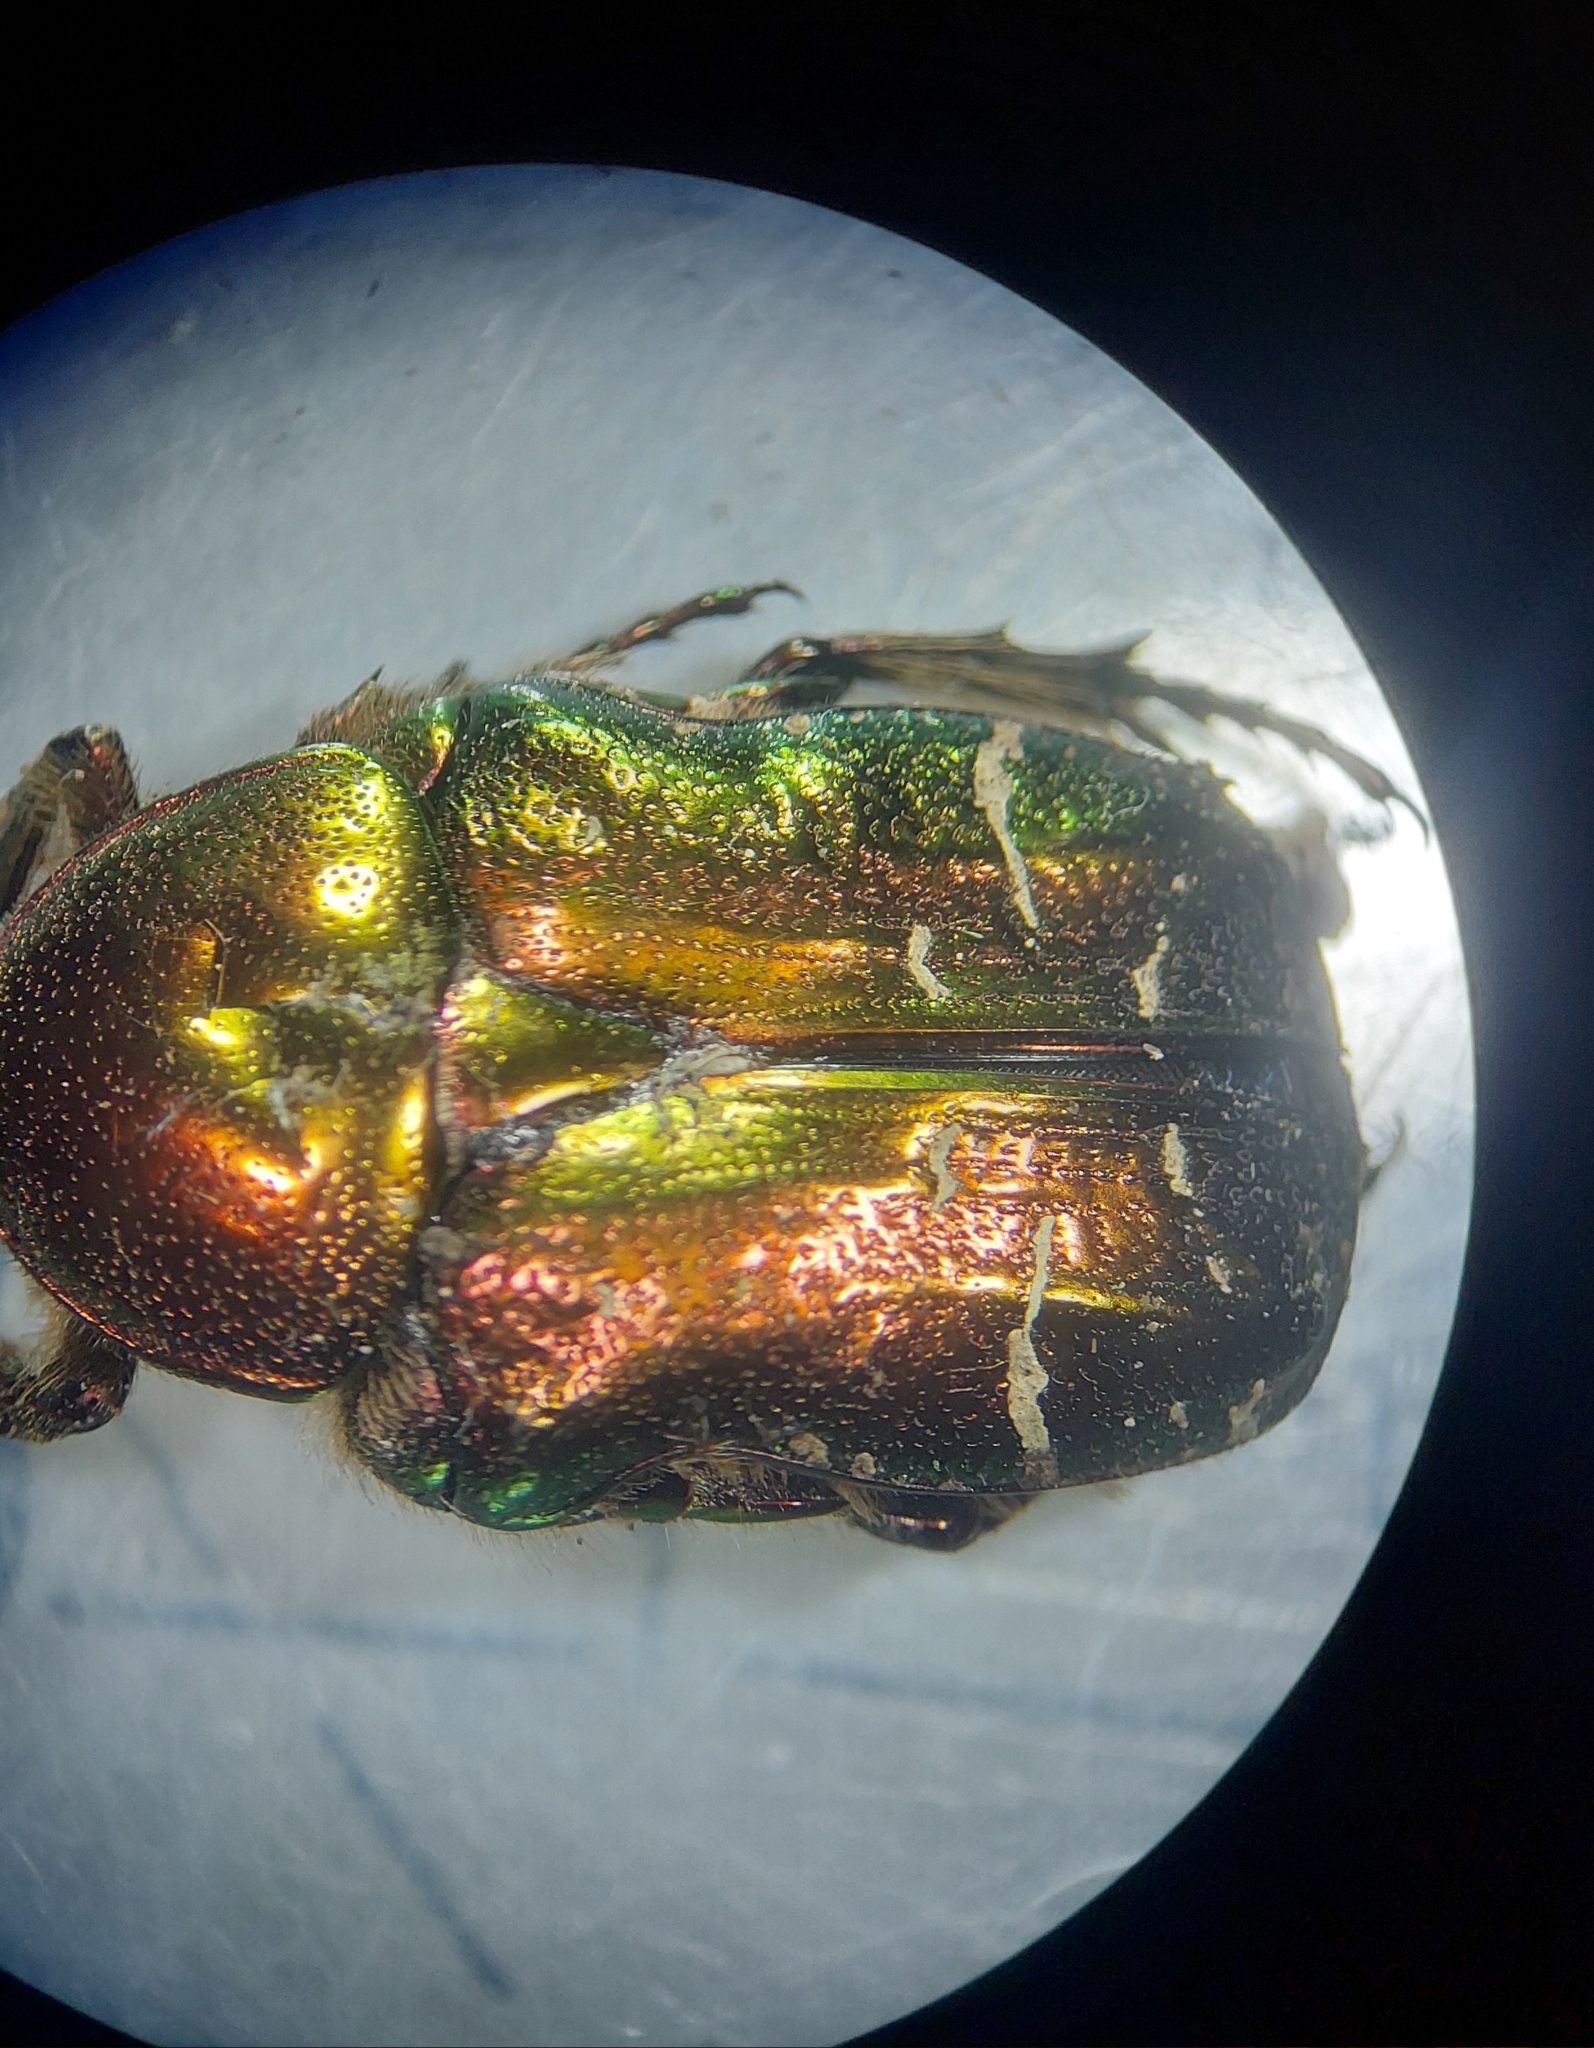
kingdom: Animalia
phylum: Arthropoda
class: Insecta
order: Coleoptera
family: Scarabaeidae
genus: Cetonia
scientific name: Cetonia aurata
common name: Rose chafer
